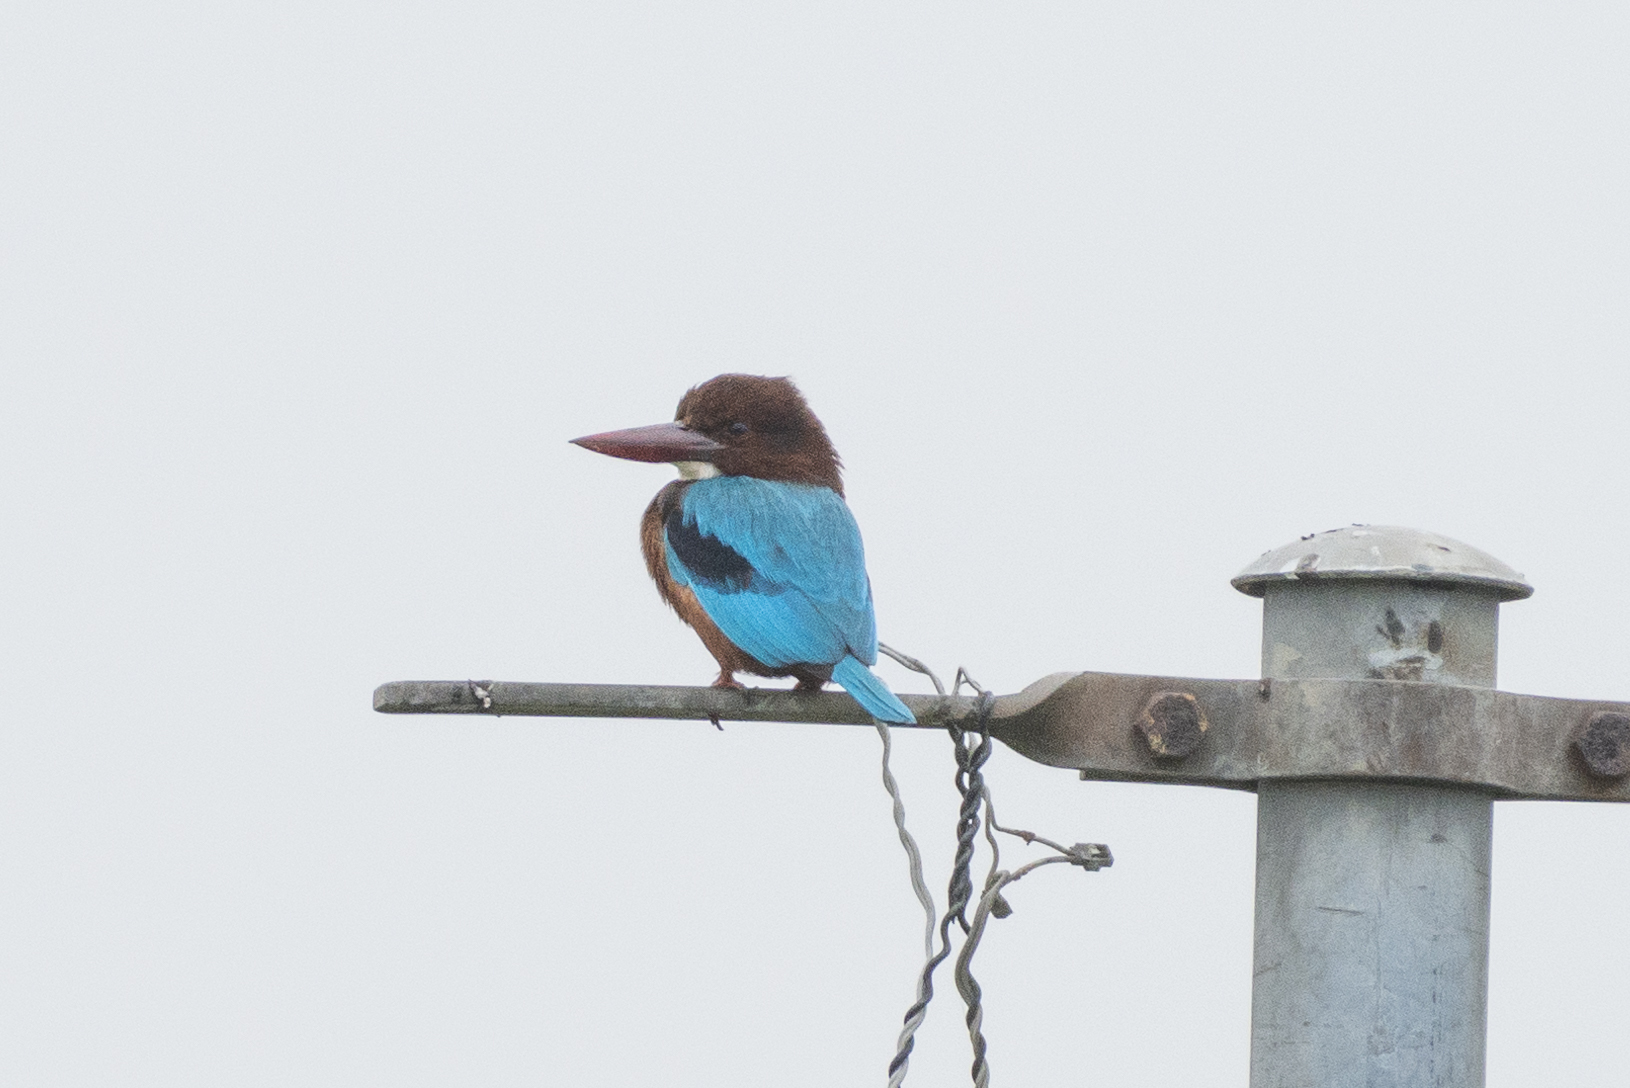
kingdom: Animalia
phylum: Chordata
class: Aves
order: Coraciiformes
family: Alcedinidae
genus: Halcyon
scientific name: Halcyon smyrnensis
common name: White-throated kingfisher
